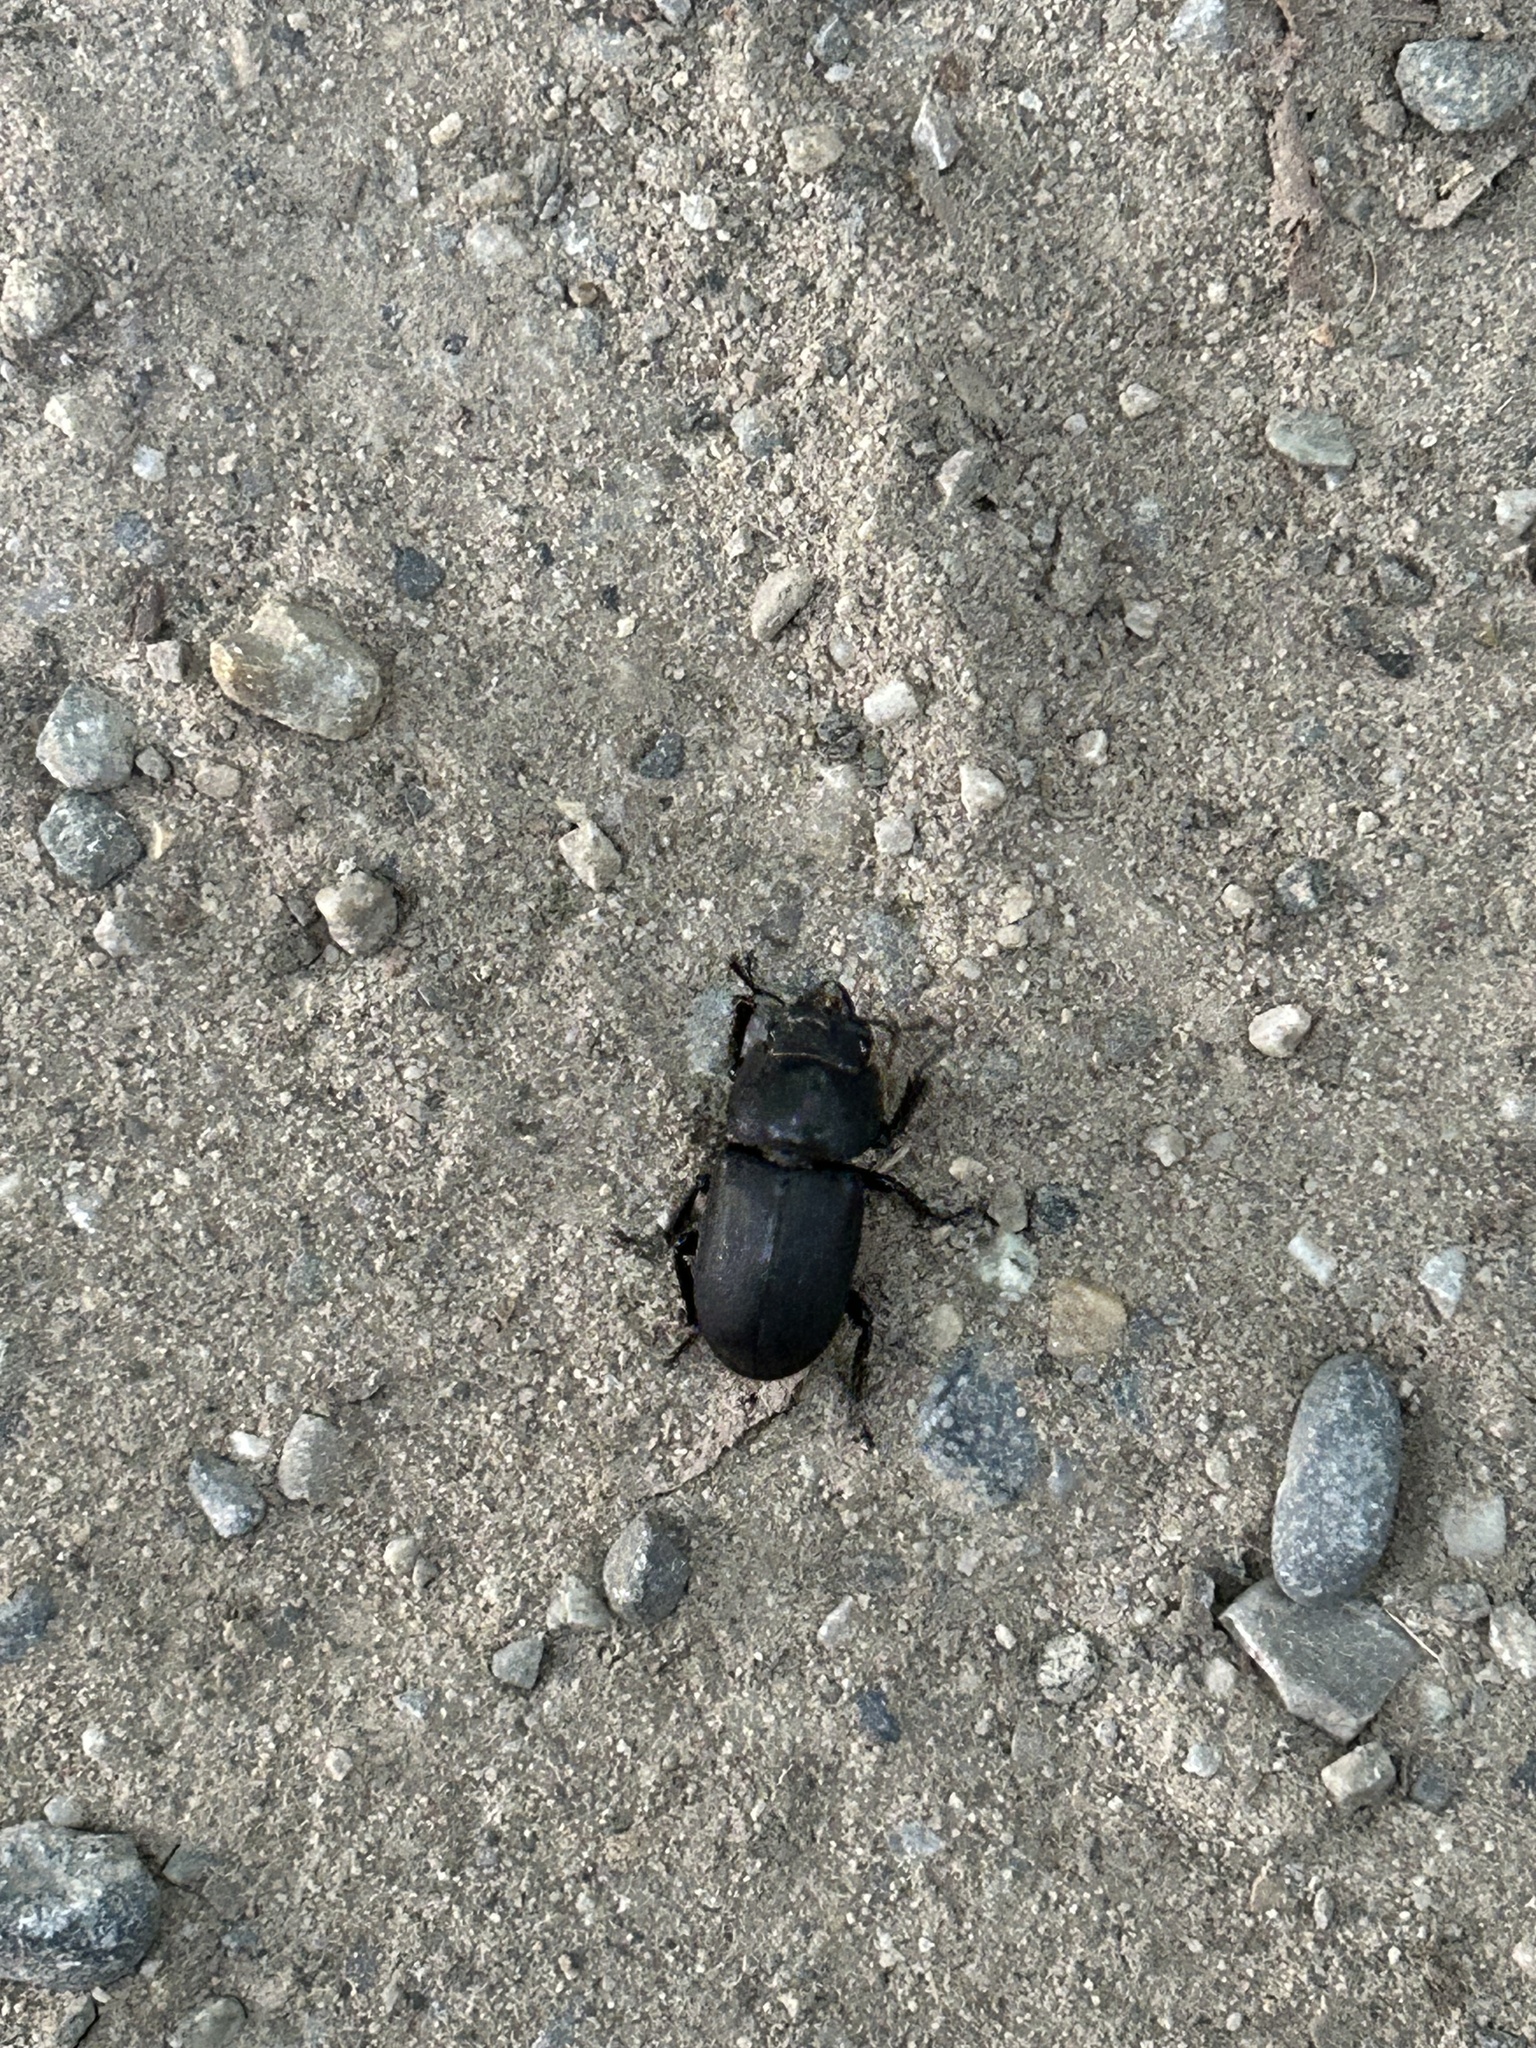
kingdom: Animalia
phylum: Arthropoda
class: Insecta
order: Coleoptera
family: Lucanidae
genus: Dorcus
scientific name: Dorcus parallelipipedus
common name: Lesser stag beetle
